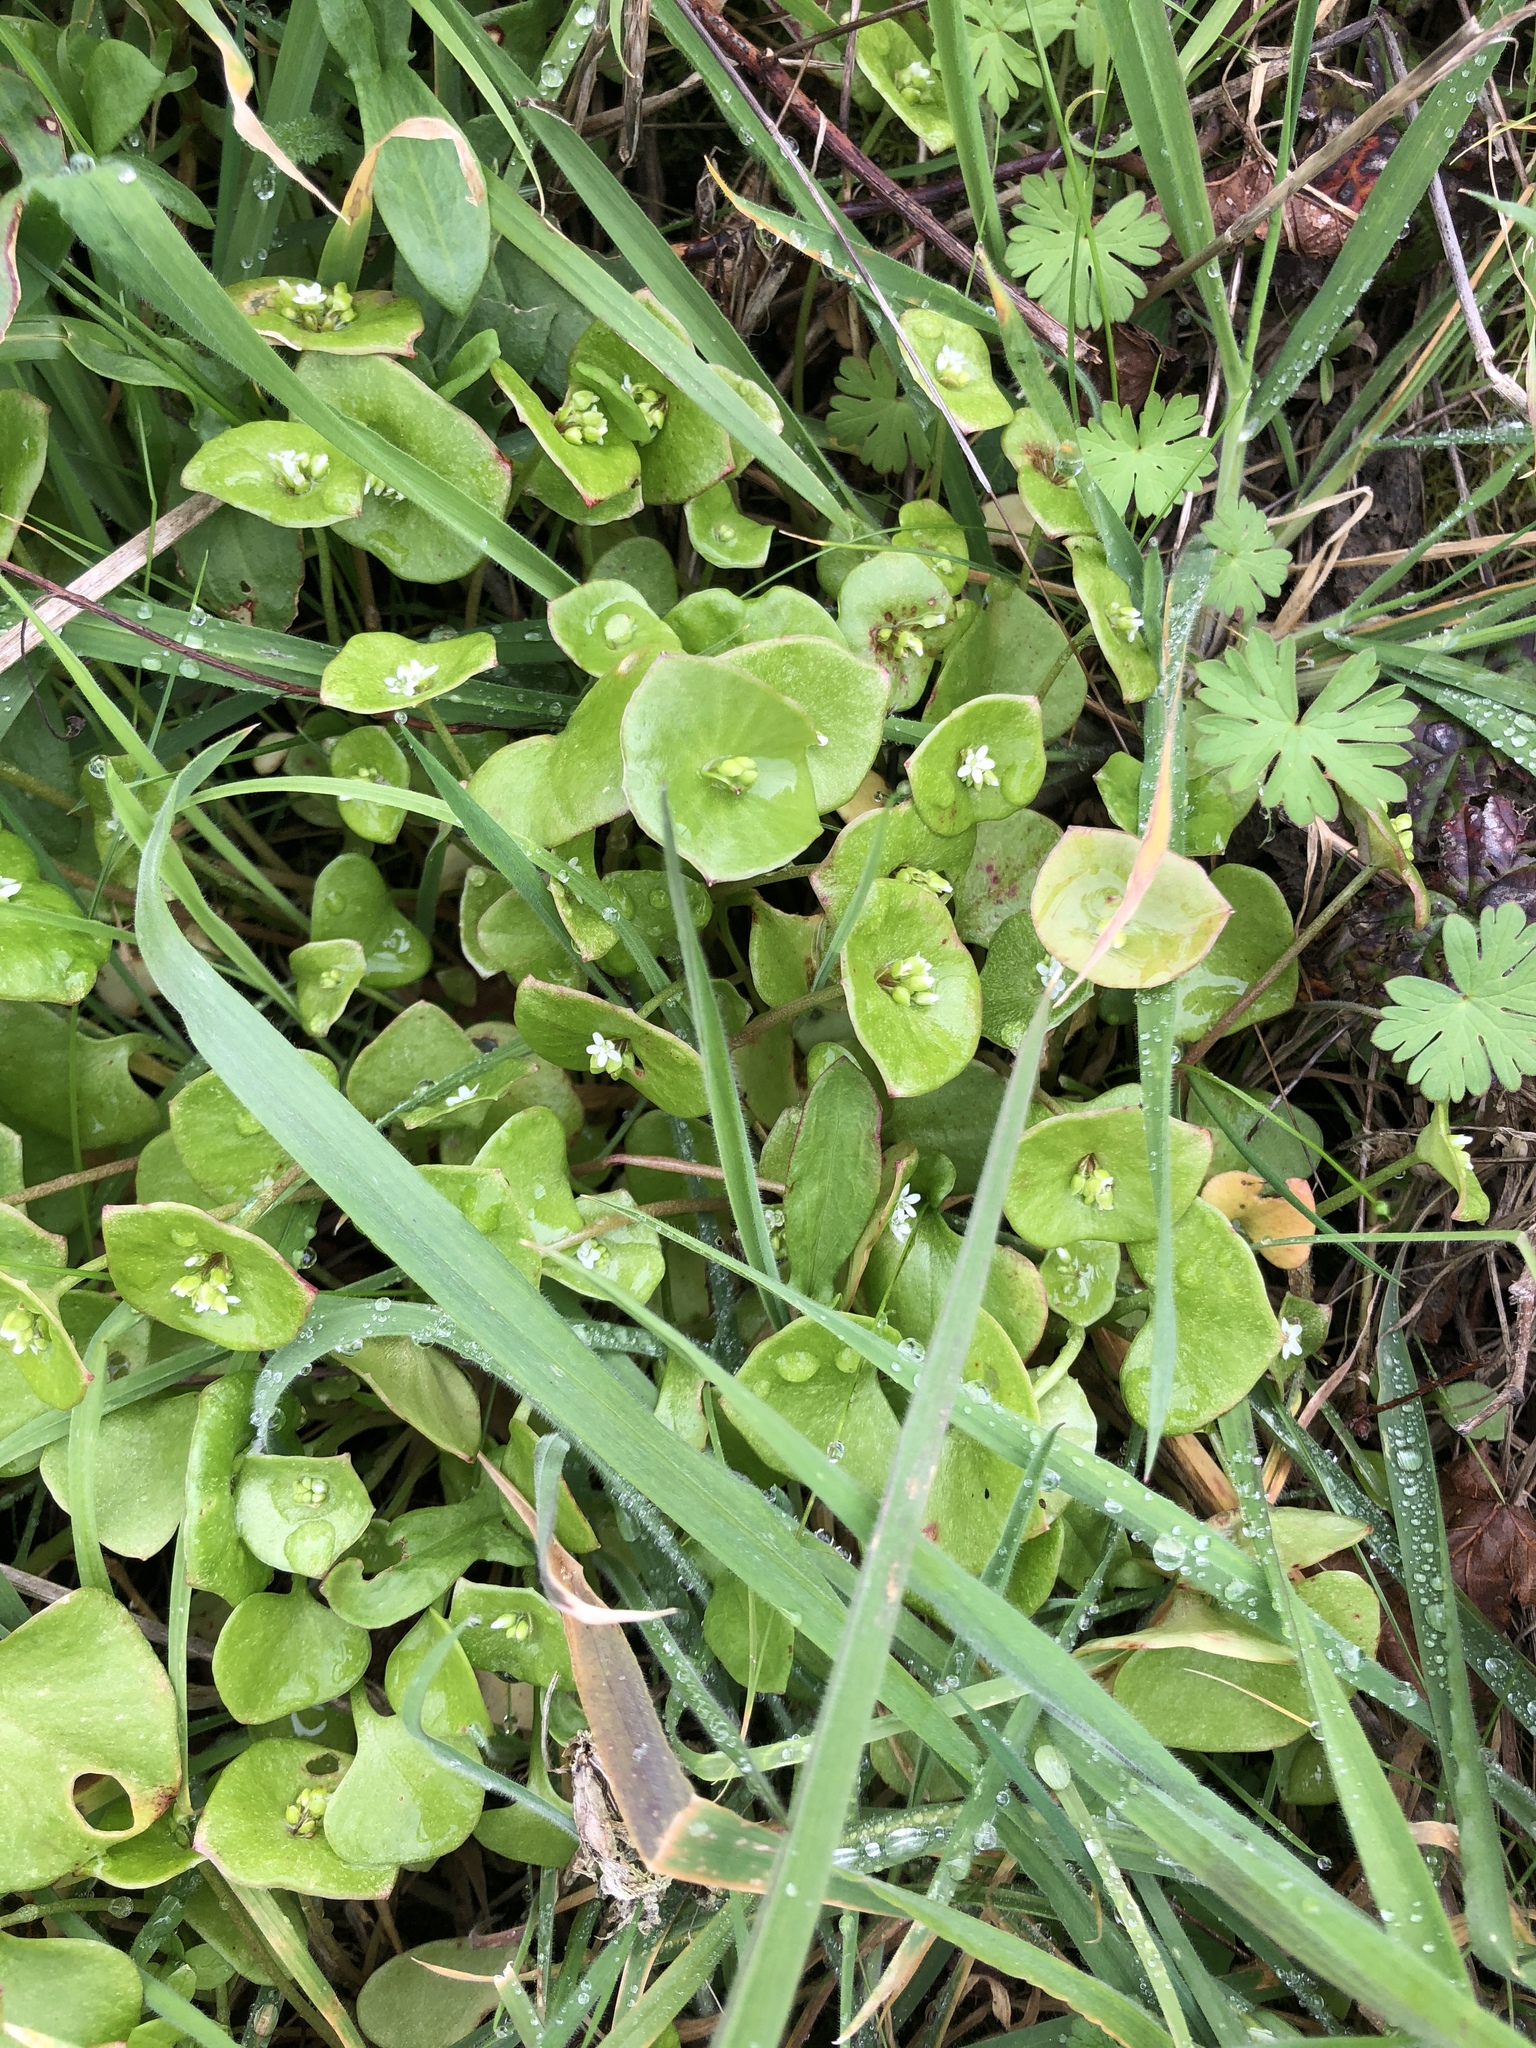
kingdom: Plantae
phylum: Tracheophyta
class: Magnoliopsida
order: Caryophyllales
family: Montiaceae
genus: Claytonia
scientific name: Claytonia perfoliata
